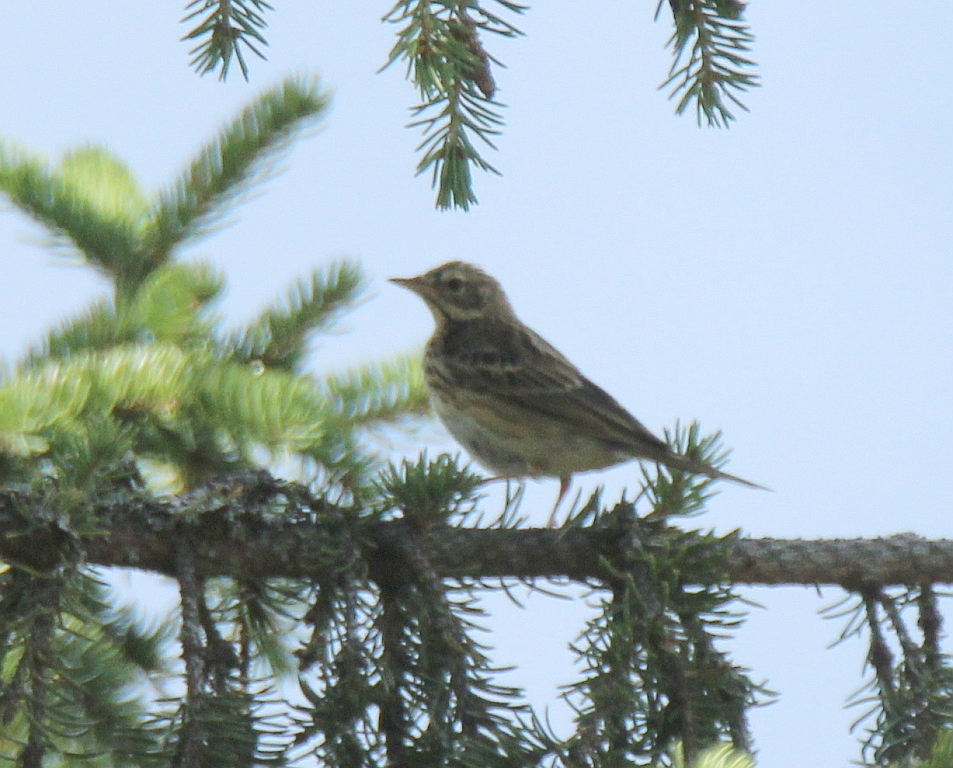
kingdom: Animalia
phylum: Chordata
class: Aves
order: Passeriformes
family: Motacillidae
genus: Anthus
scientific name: Anthus trivialis
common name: Tree pipit
